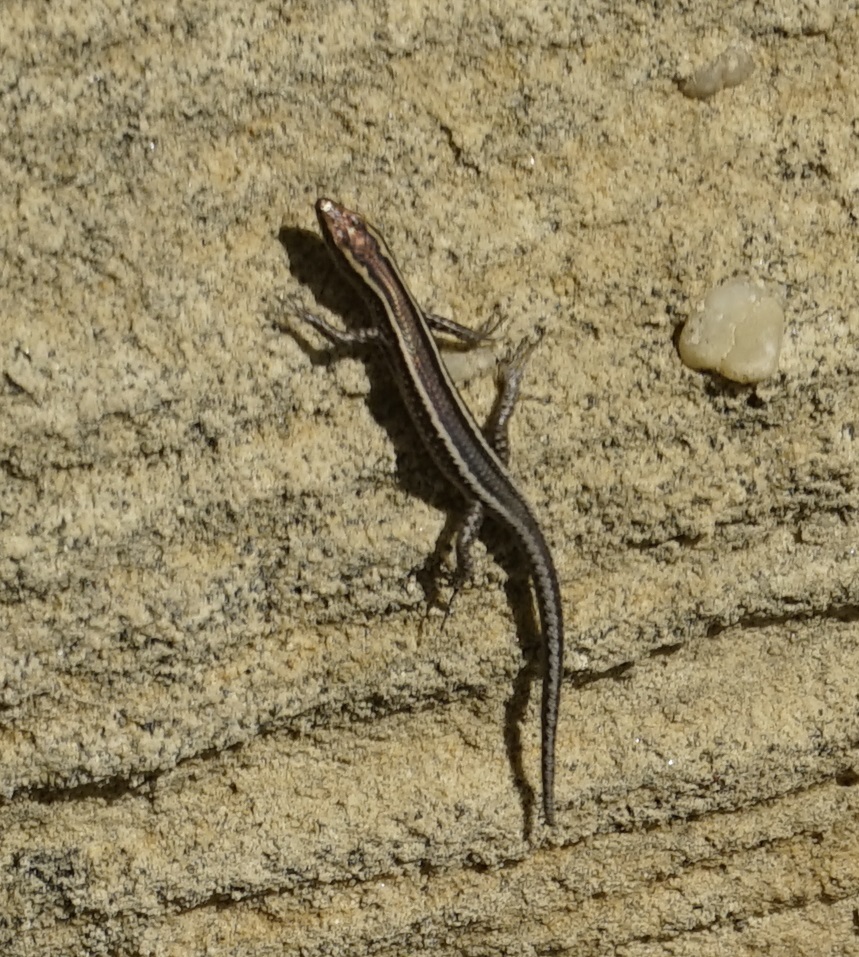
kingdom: Animalia
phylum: Chordata
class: Squamata
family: Scincidae
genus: Cryptoblepharus
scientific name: Cryptoblepharus pulcher
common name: Elegant snake-eyed skink
